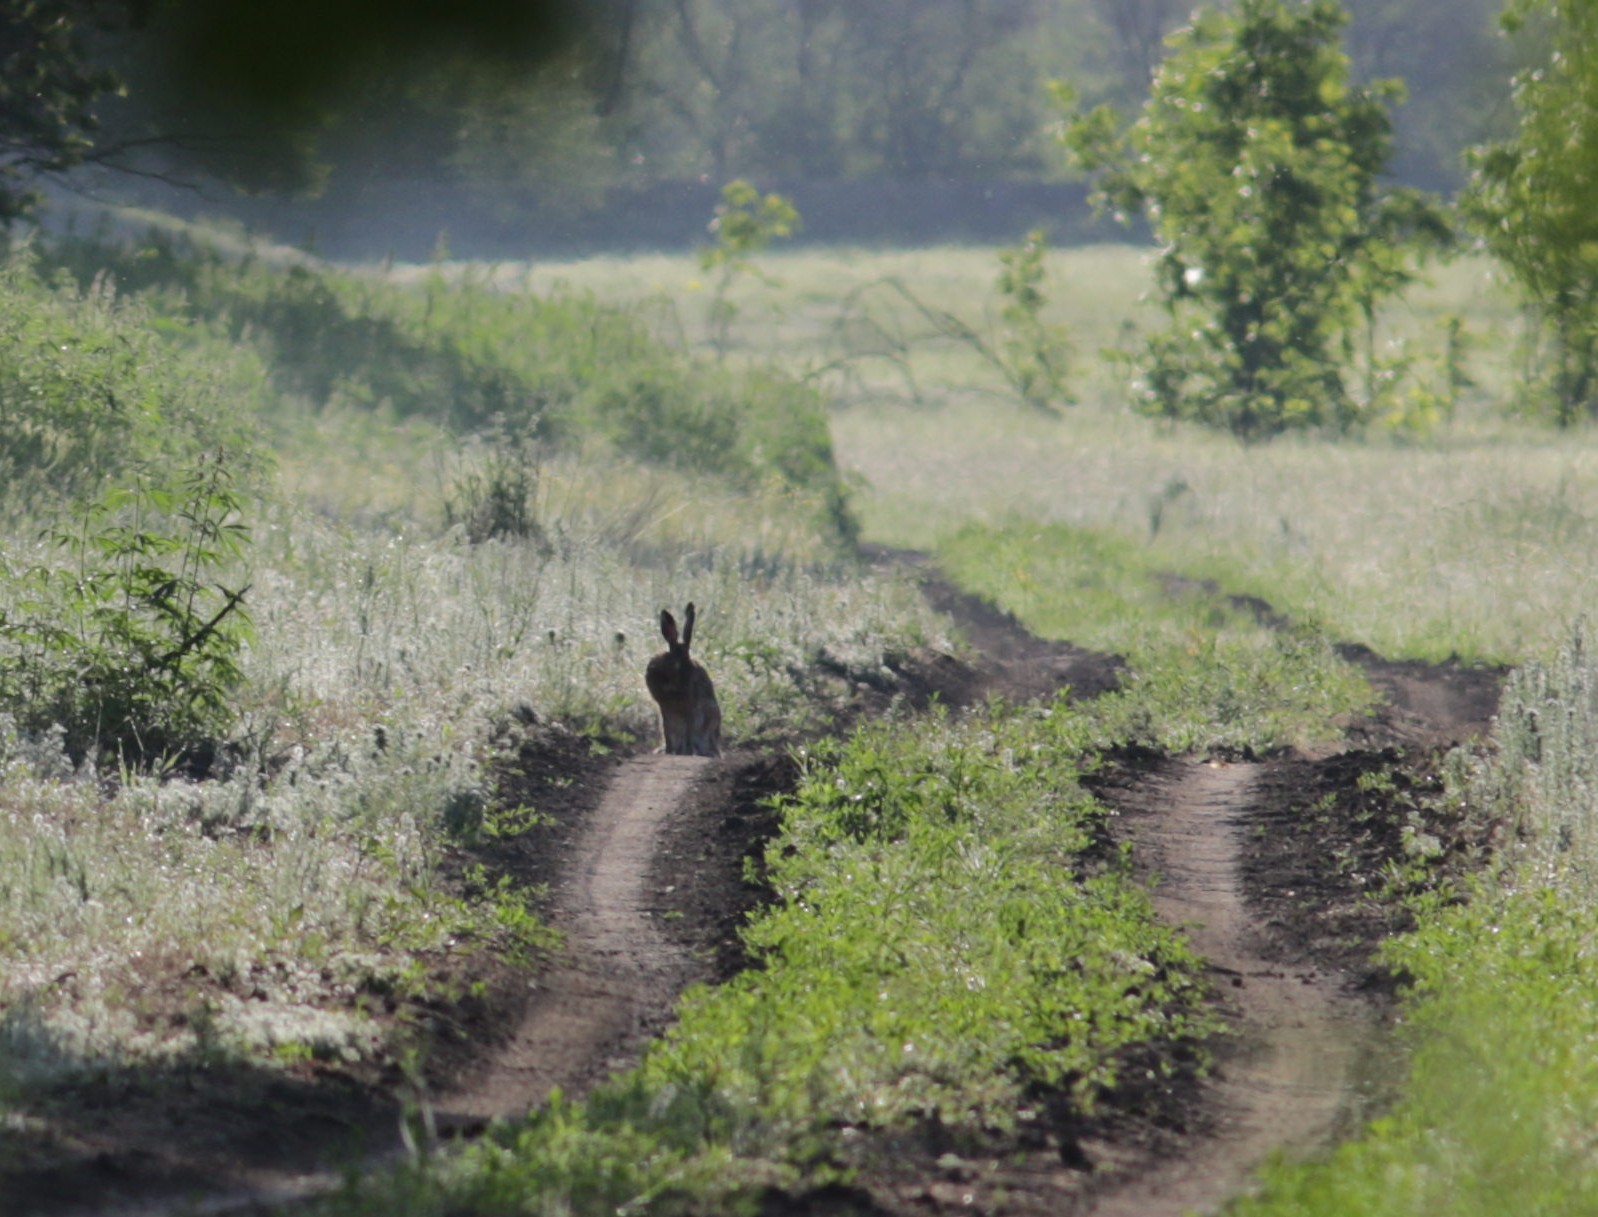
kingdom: Animalia
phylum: Chordata
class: Mammalia
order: Lagomorpha
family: Leporidae
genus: Lepus
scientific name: Lepus europaeus
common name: European hare
